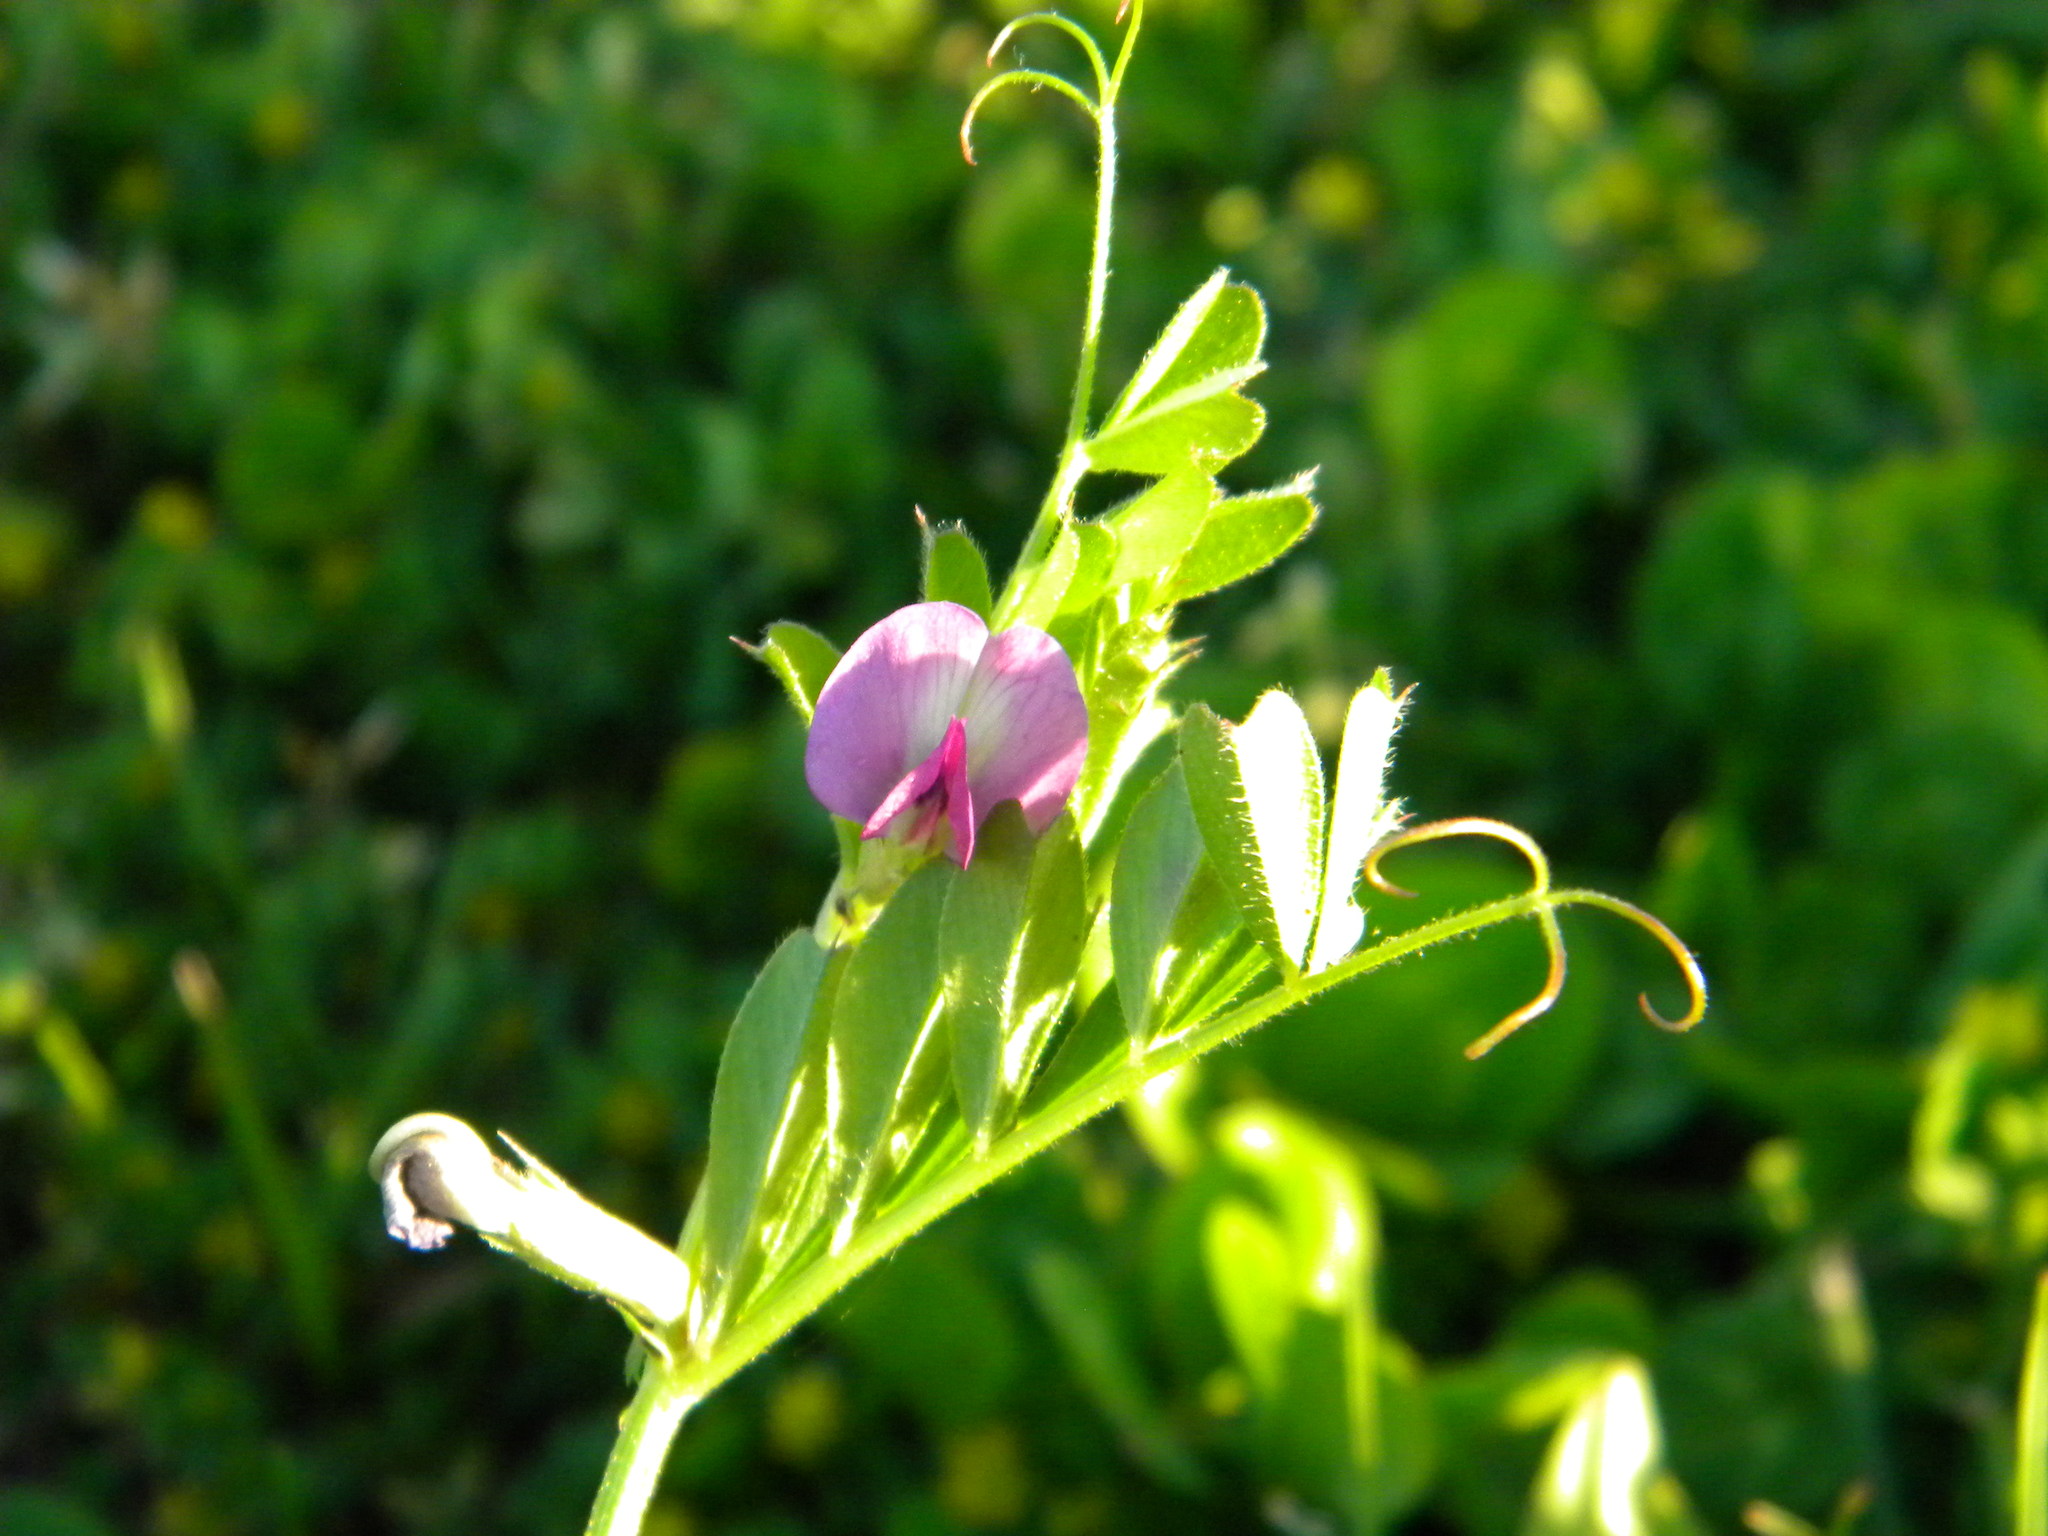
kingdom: Plantae
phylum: Tracheophyta
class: Magnoliopsida
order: Fabales
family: Fabaceae
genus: Vicia
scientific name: Vicia sativa
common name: Garden vetch
